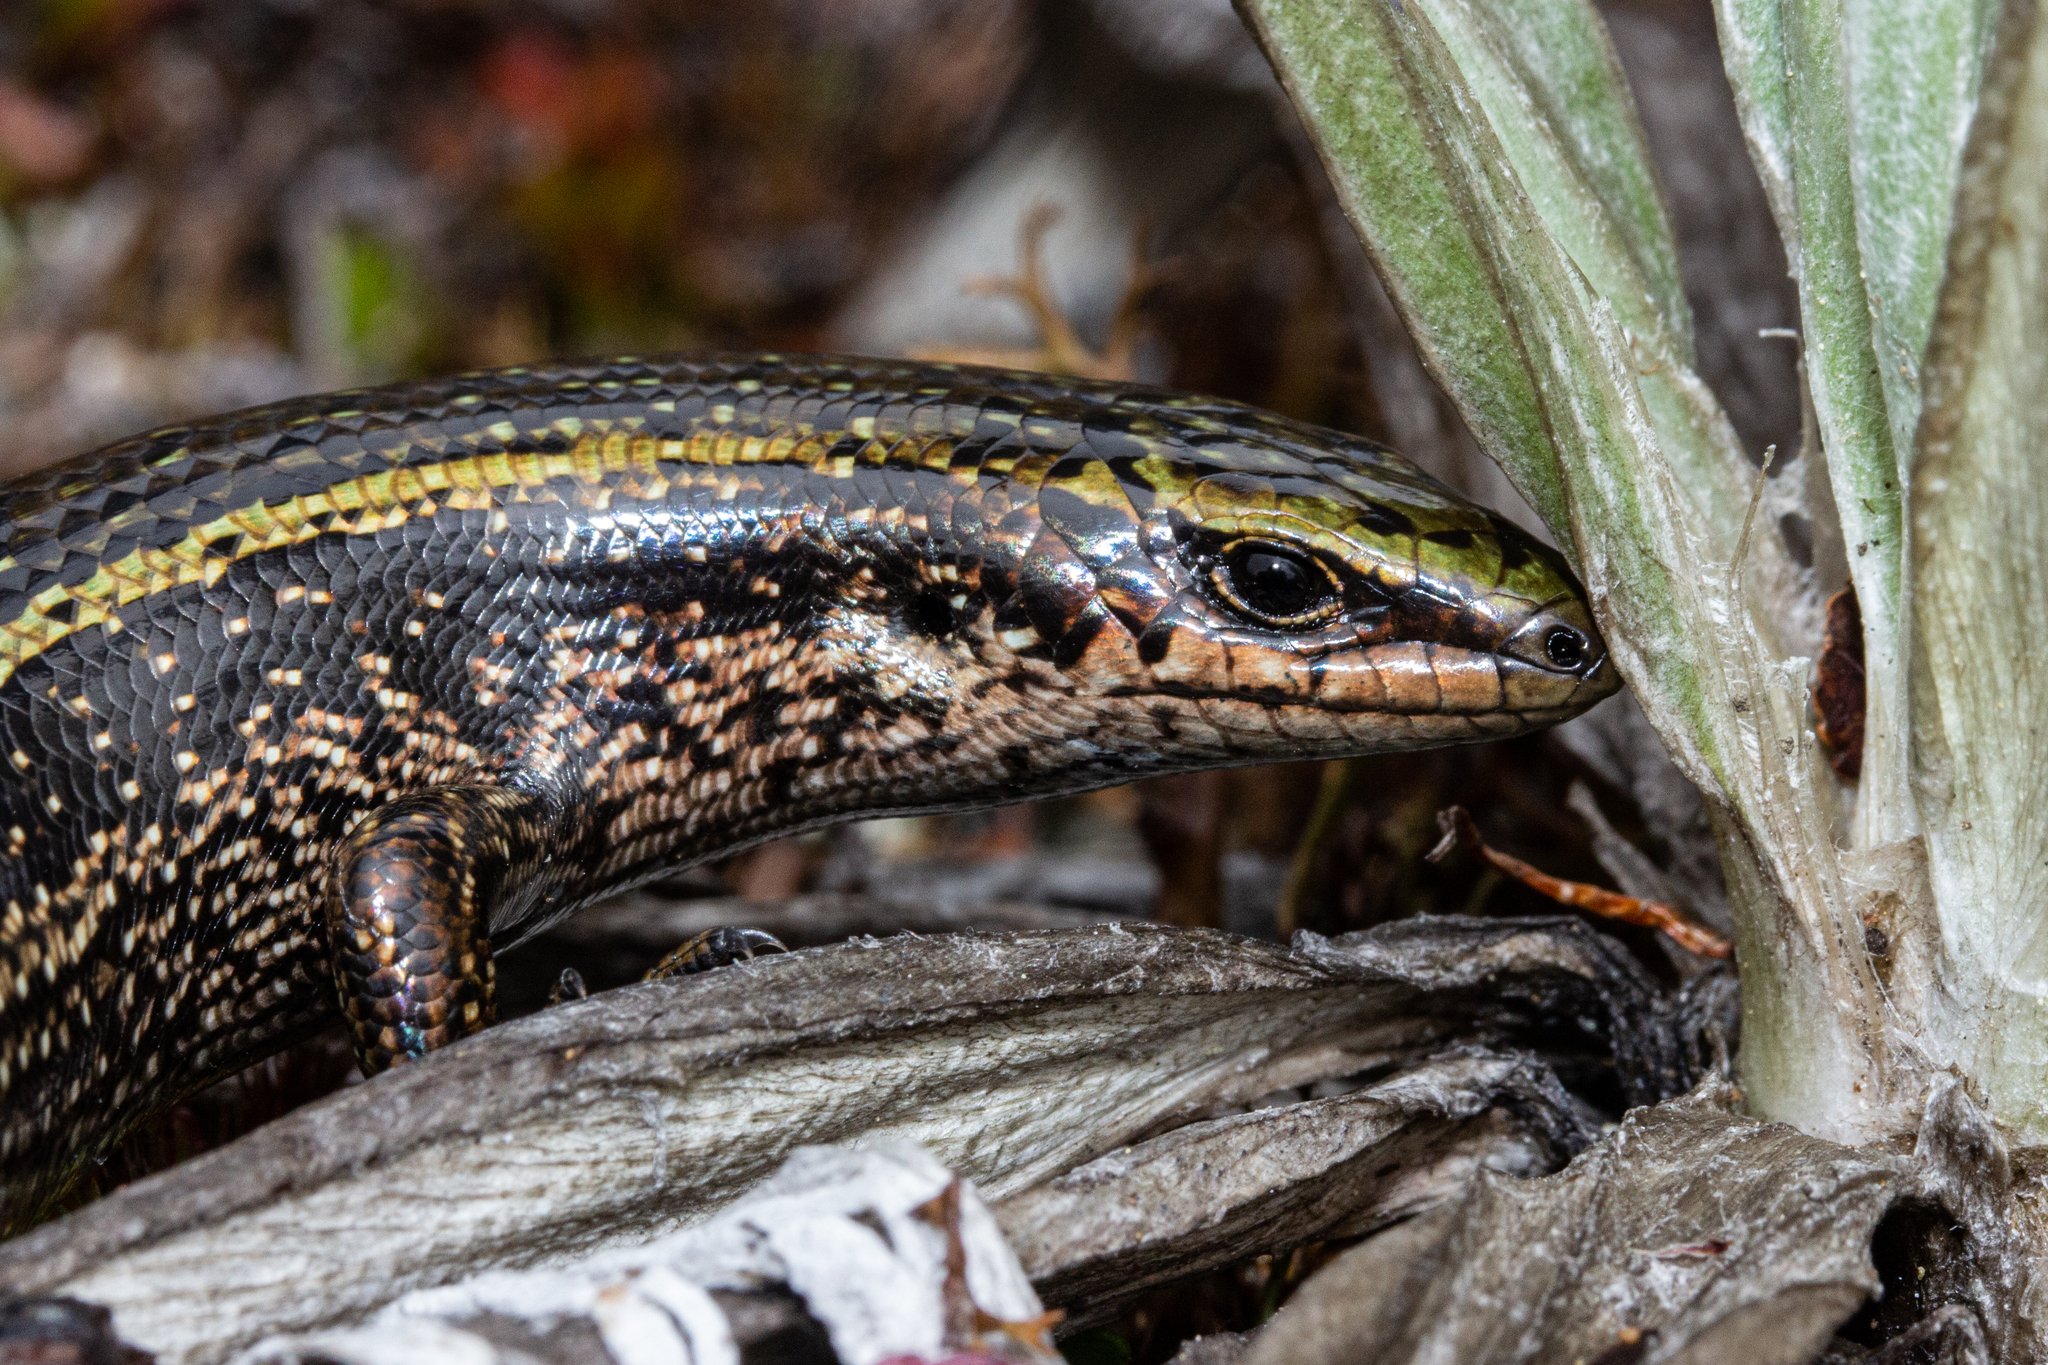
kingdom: Animalia
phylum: Chordata
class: Squamata
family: Scincidae
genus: Oligosoma
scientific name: Oligosoma chloronoton
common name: Green skink
